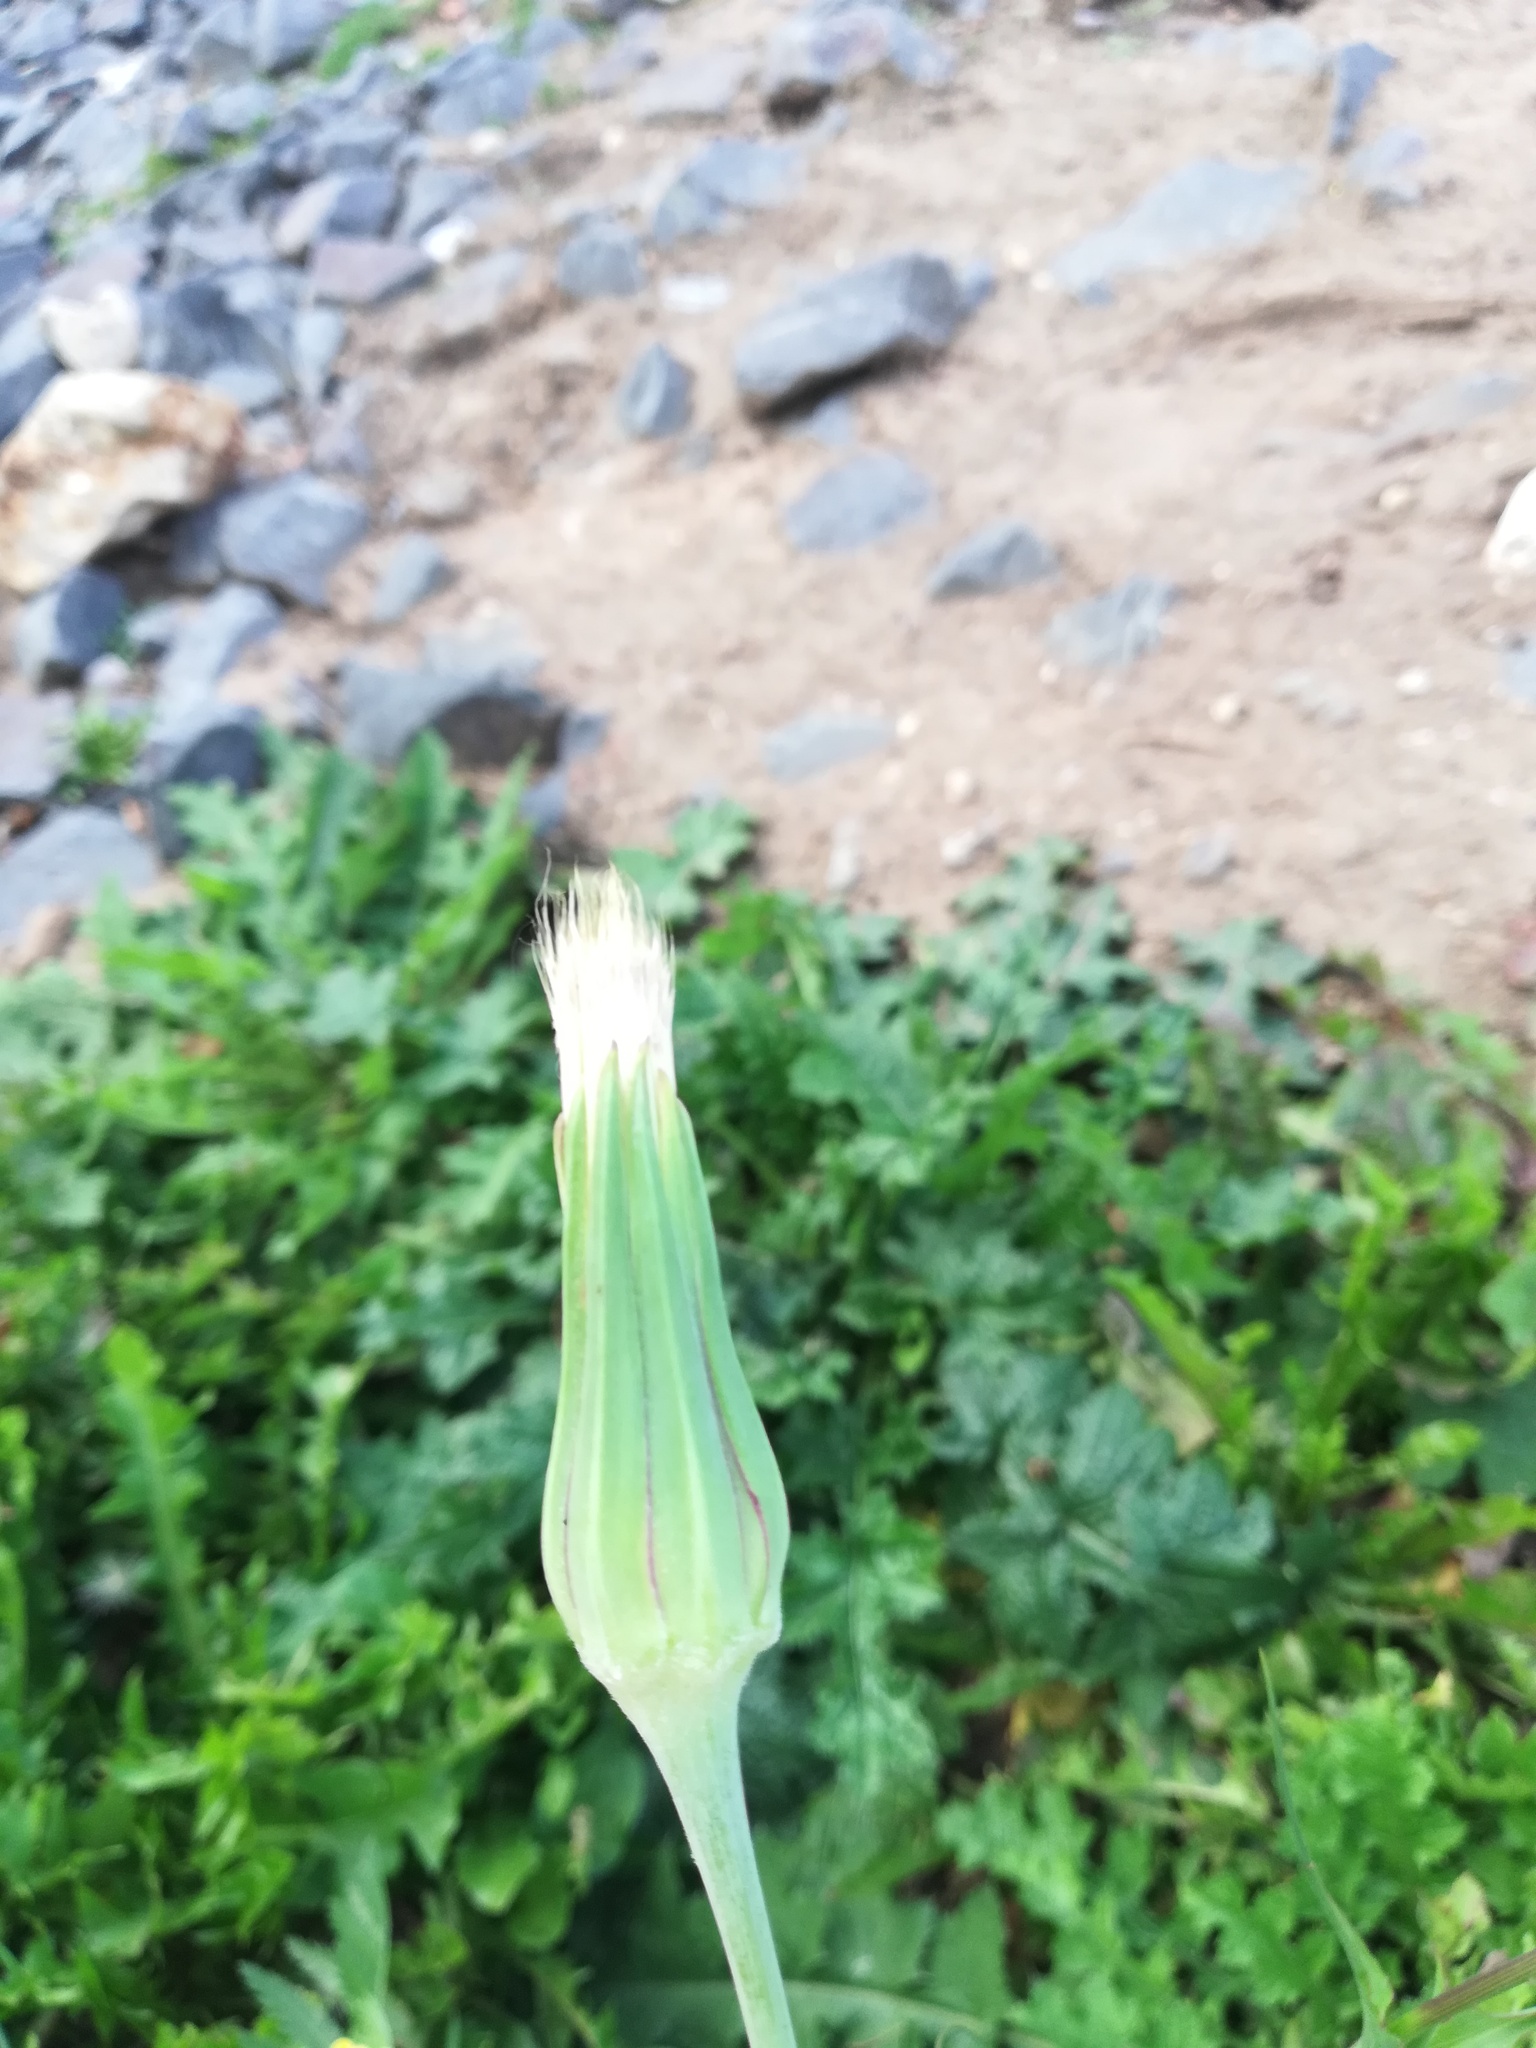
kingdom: Plantae
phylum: Tracheophyta
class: Magnoliopsida
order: Asterales
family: Asteraceae
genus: Tragopogon
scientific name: Tragopogon pratensis
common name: Goat's-beard
